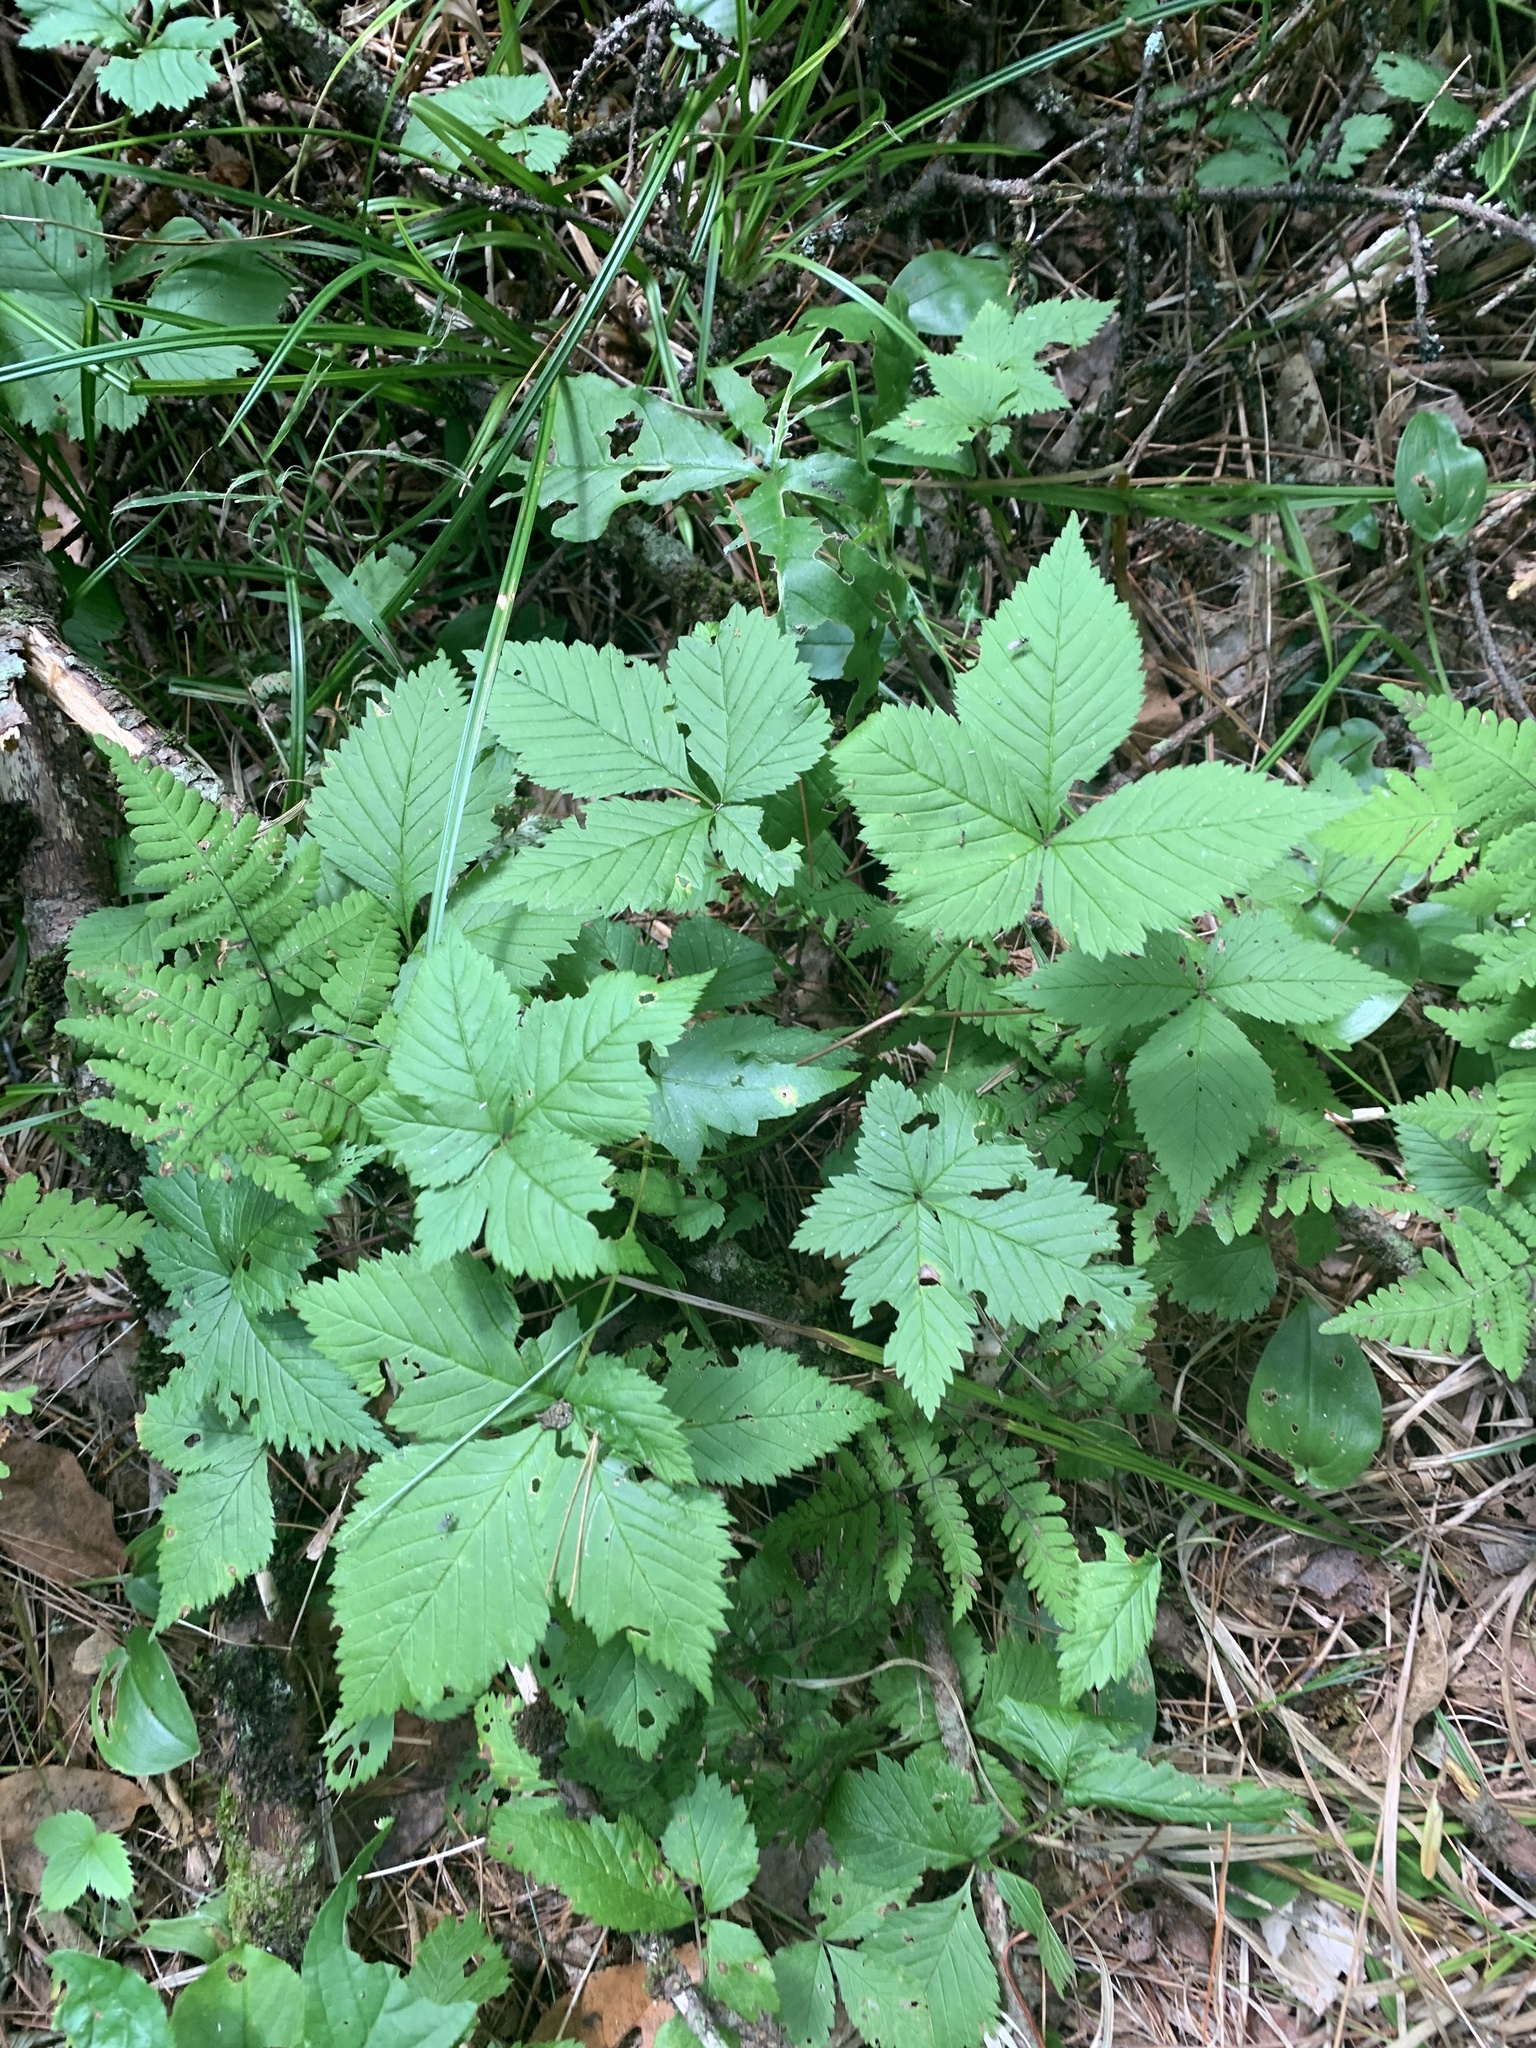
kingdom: Plantae
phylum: Tracheophyta
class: Magnoliopsida
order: Rosales
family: Rosaceae
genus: Rubus
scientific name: Rubus pubescens
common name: Dwarf raspberry
